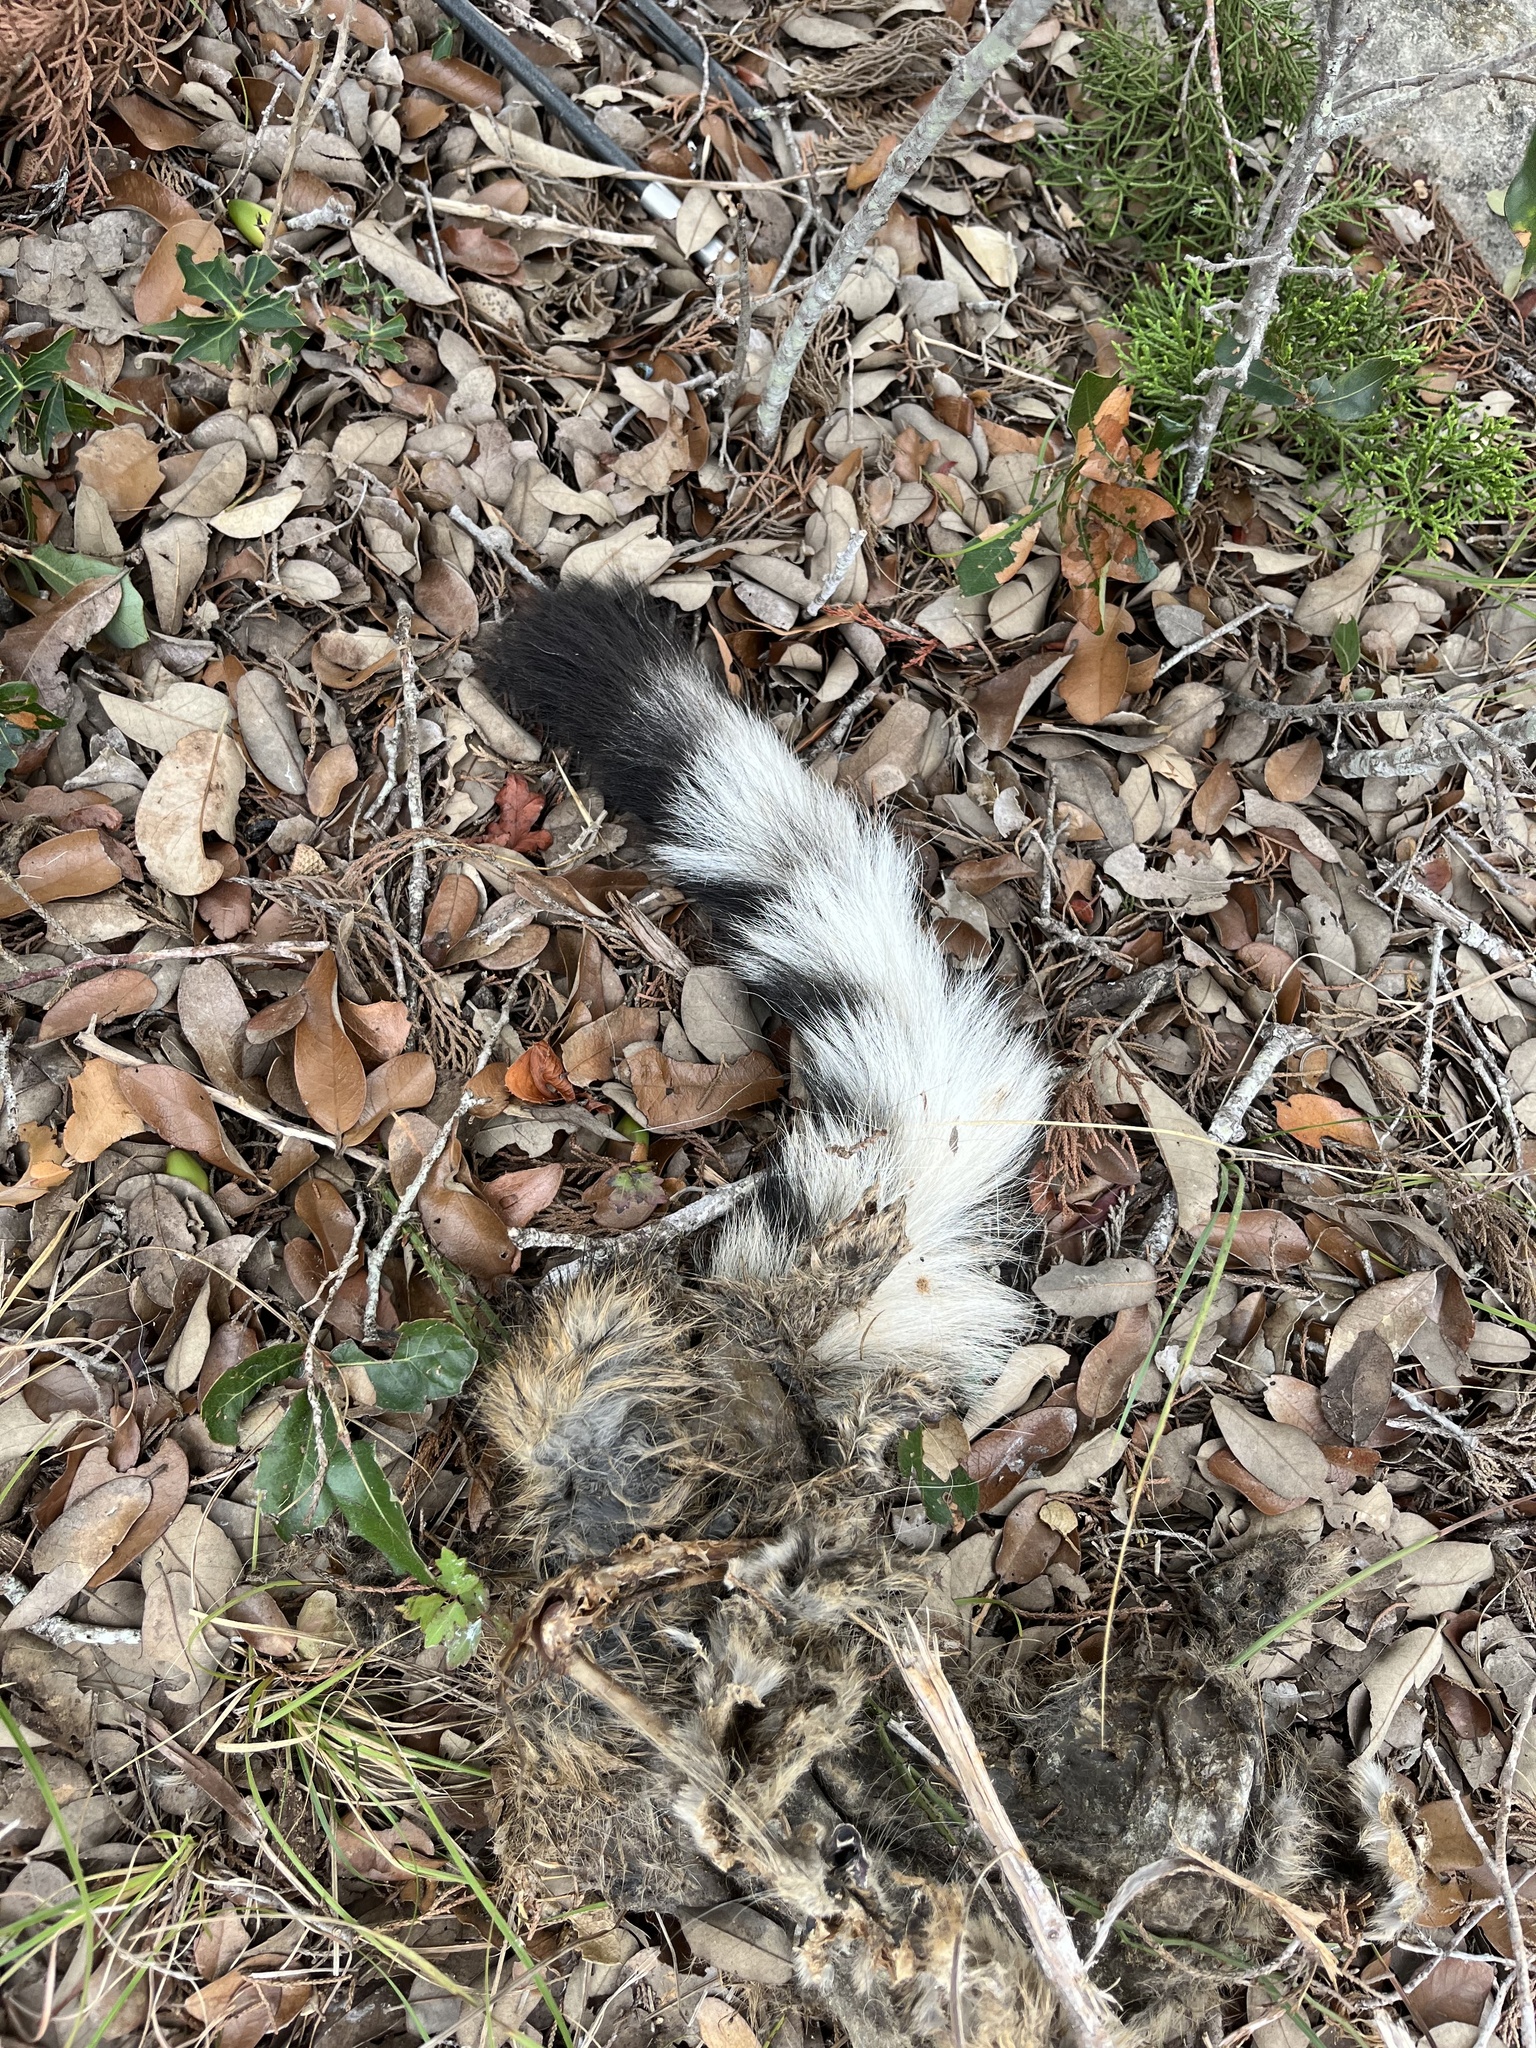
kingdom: Animalia
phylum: Chordata
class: Mammalia
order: Carnivora
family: Procyonidae
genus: Bassariscus
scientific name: Bassariscus astutus
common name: Ringtail
